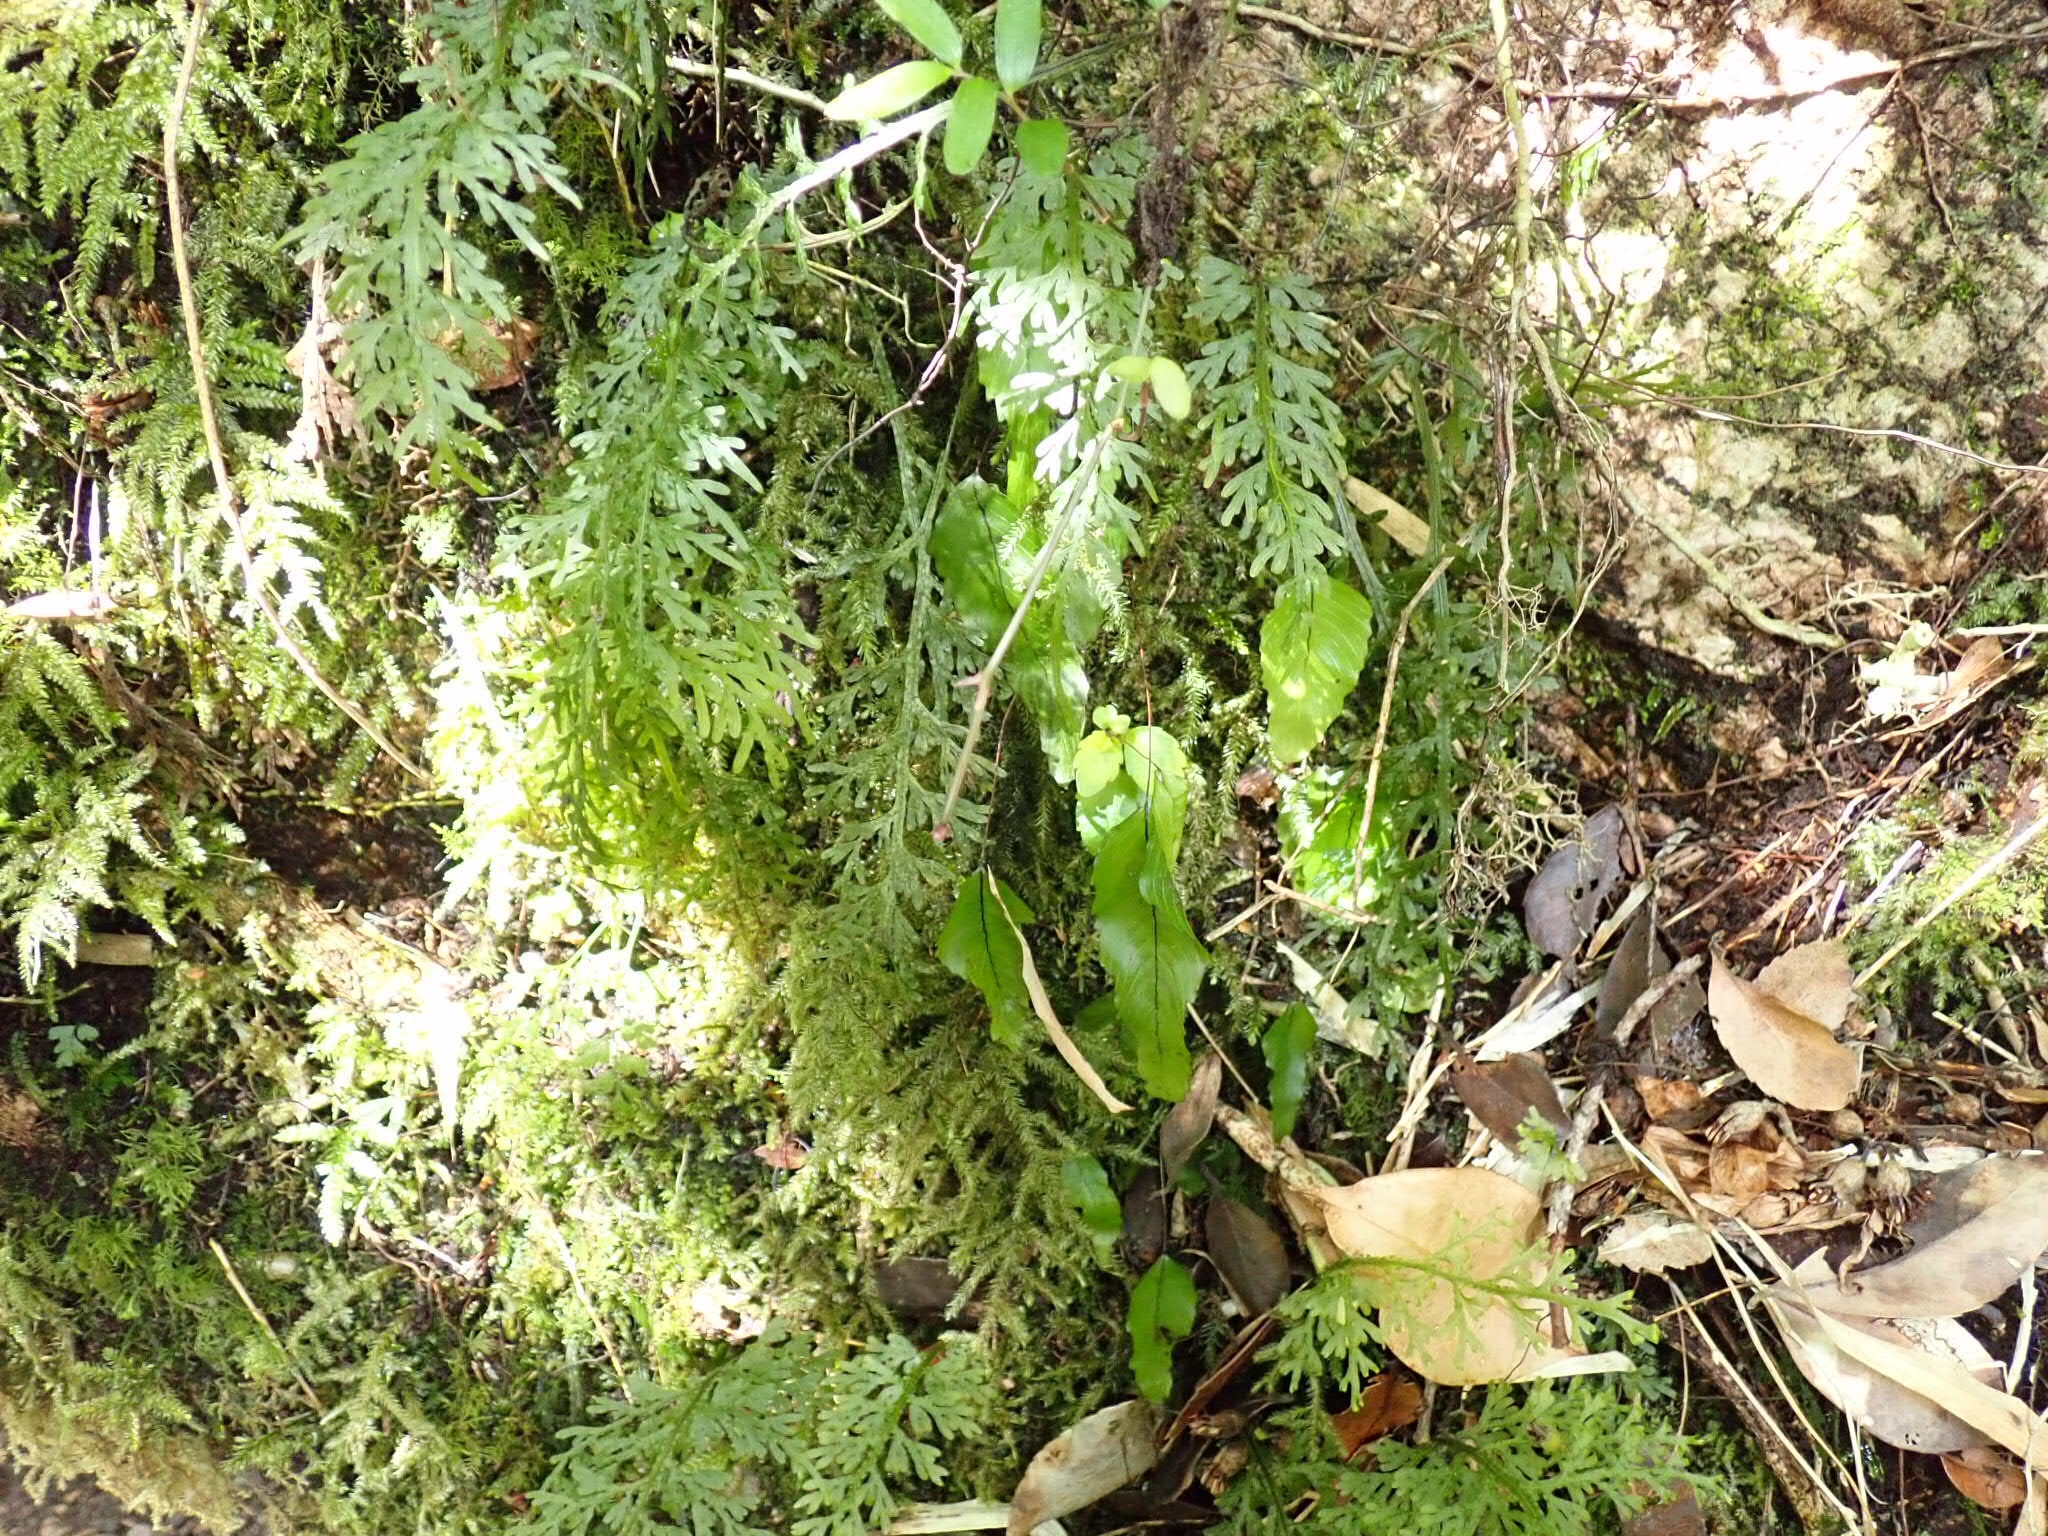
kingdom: Plantae
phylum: Tracheophyta
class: Polypodiopsida
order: Hymenophyllales
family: Hymenophyllaceae
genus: Hymenophyllum
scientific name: Hymenophyllum cruentum
